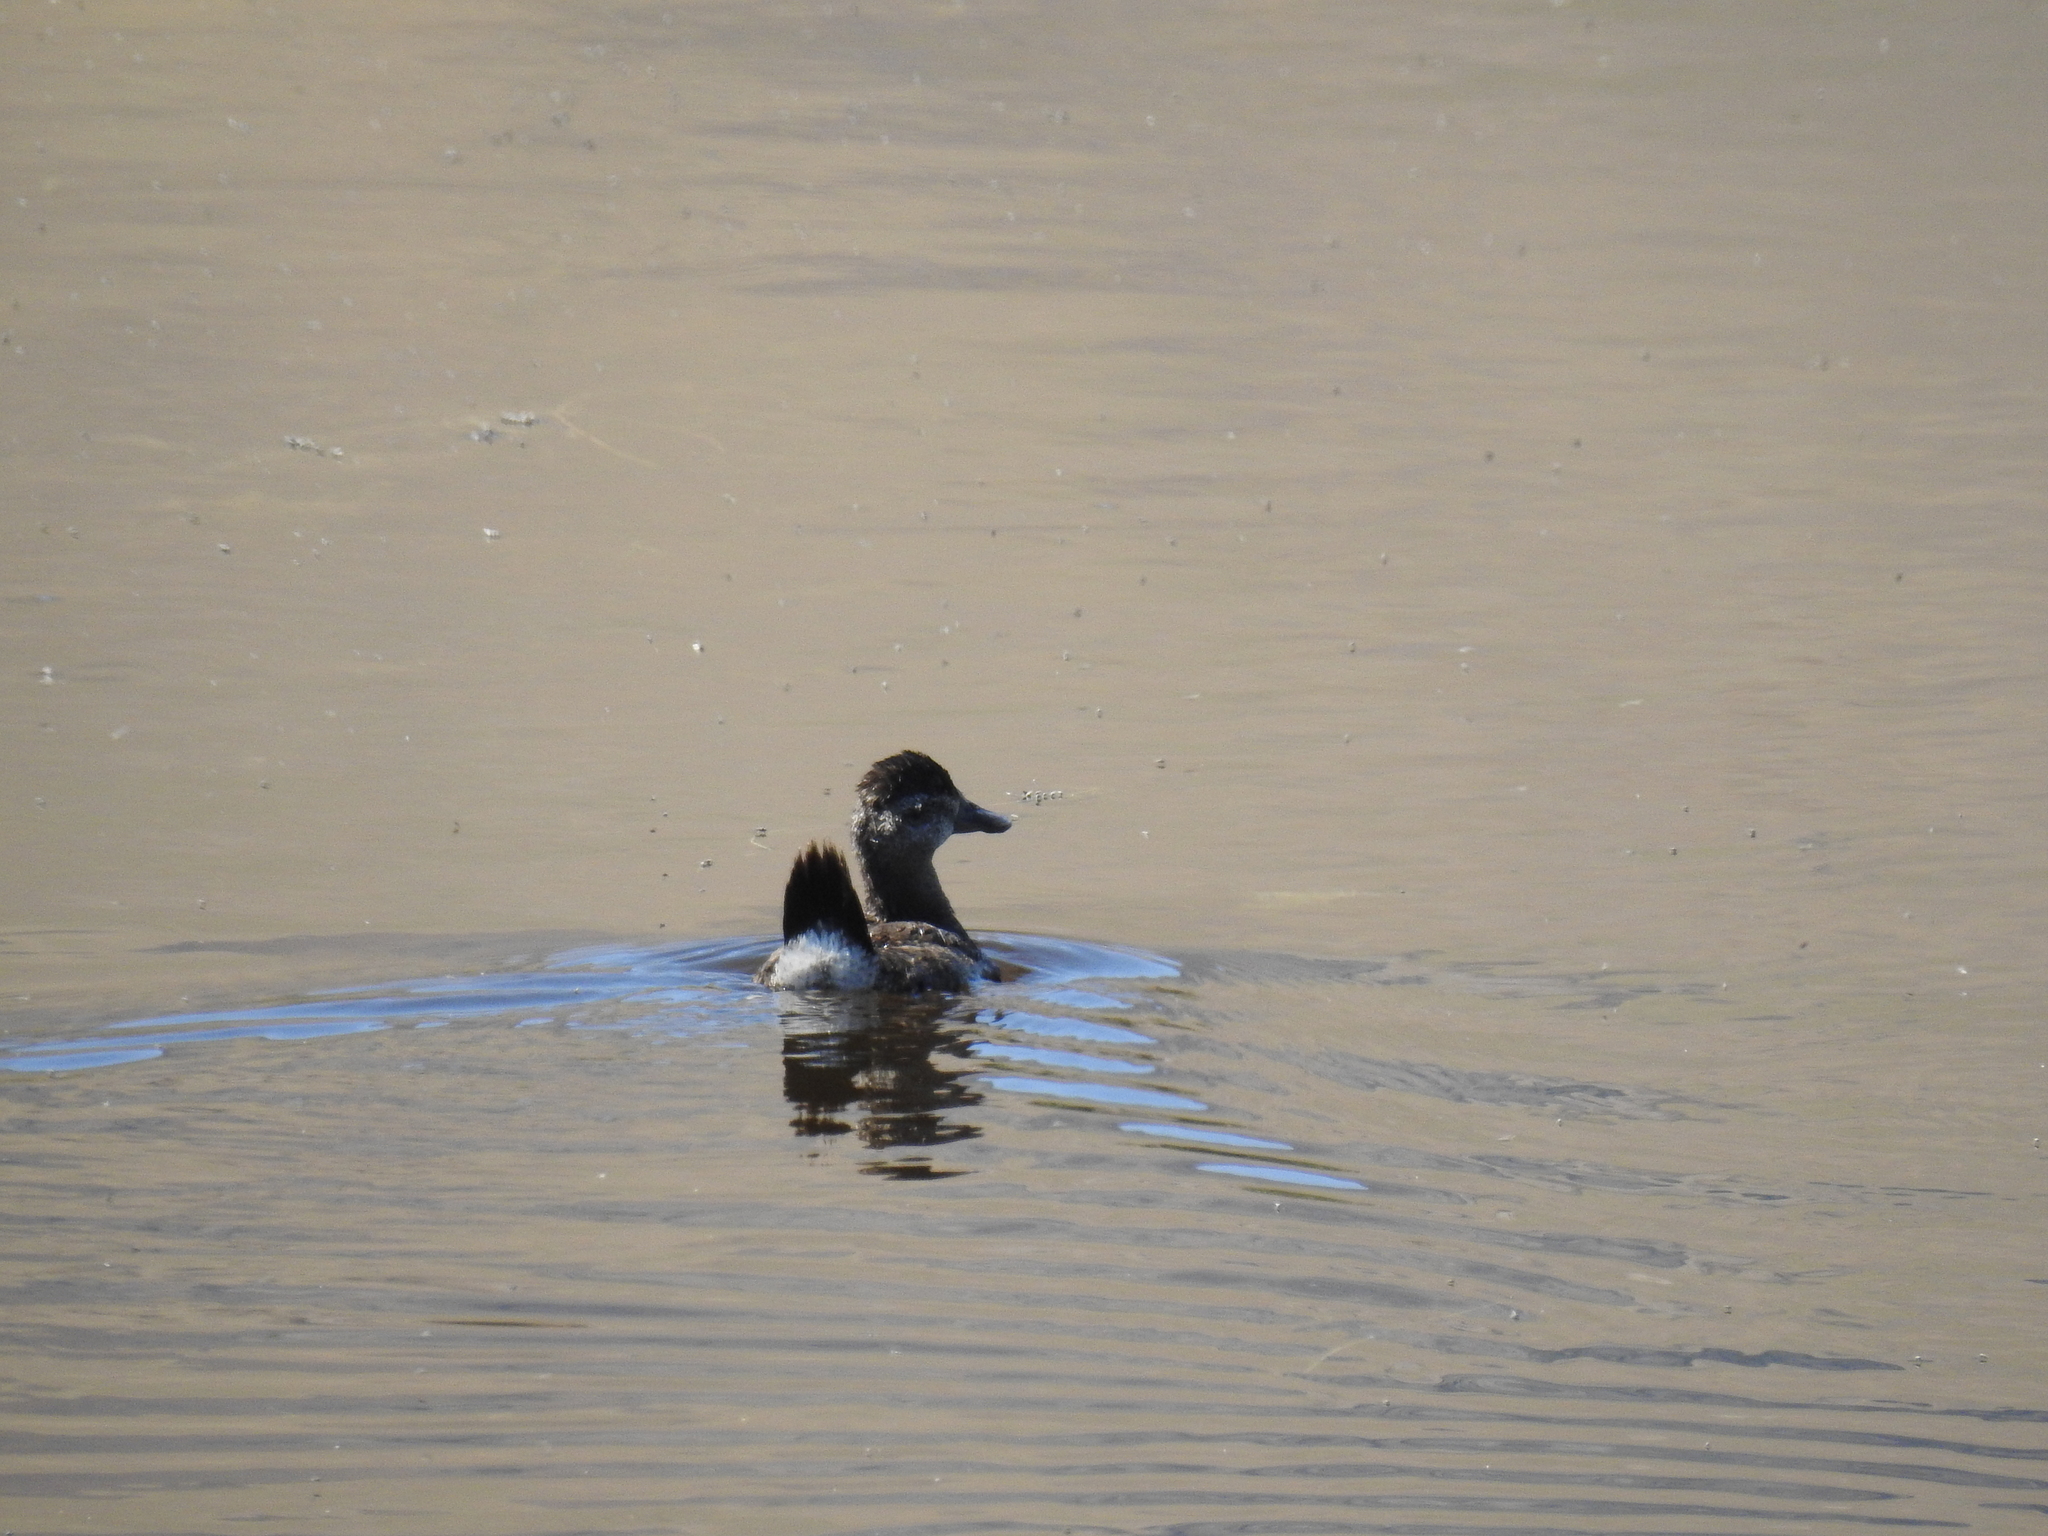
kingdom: Animalia
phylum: Chordata
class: Aves
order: Anseriformes
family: Anatidae
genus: Oxyura
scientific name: Oxyura jamaicensis
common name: Ruddy duck
